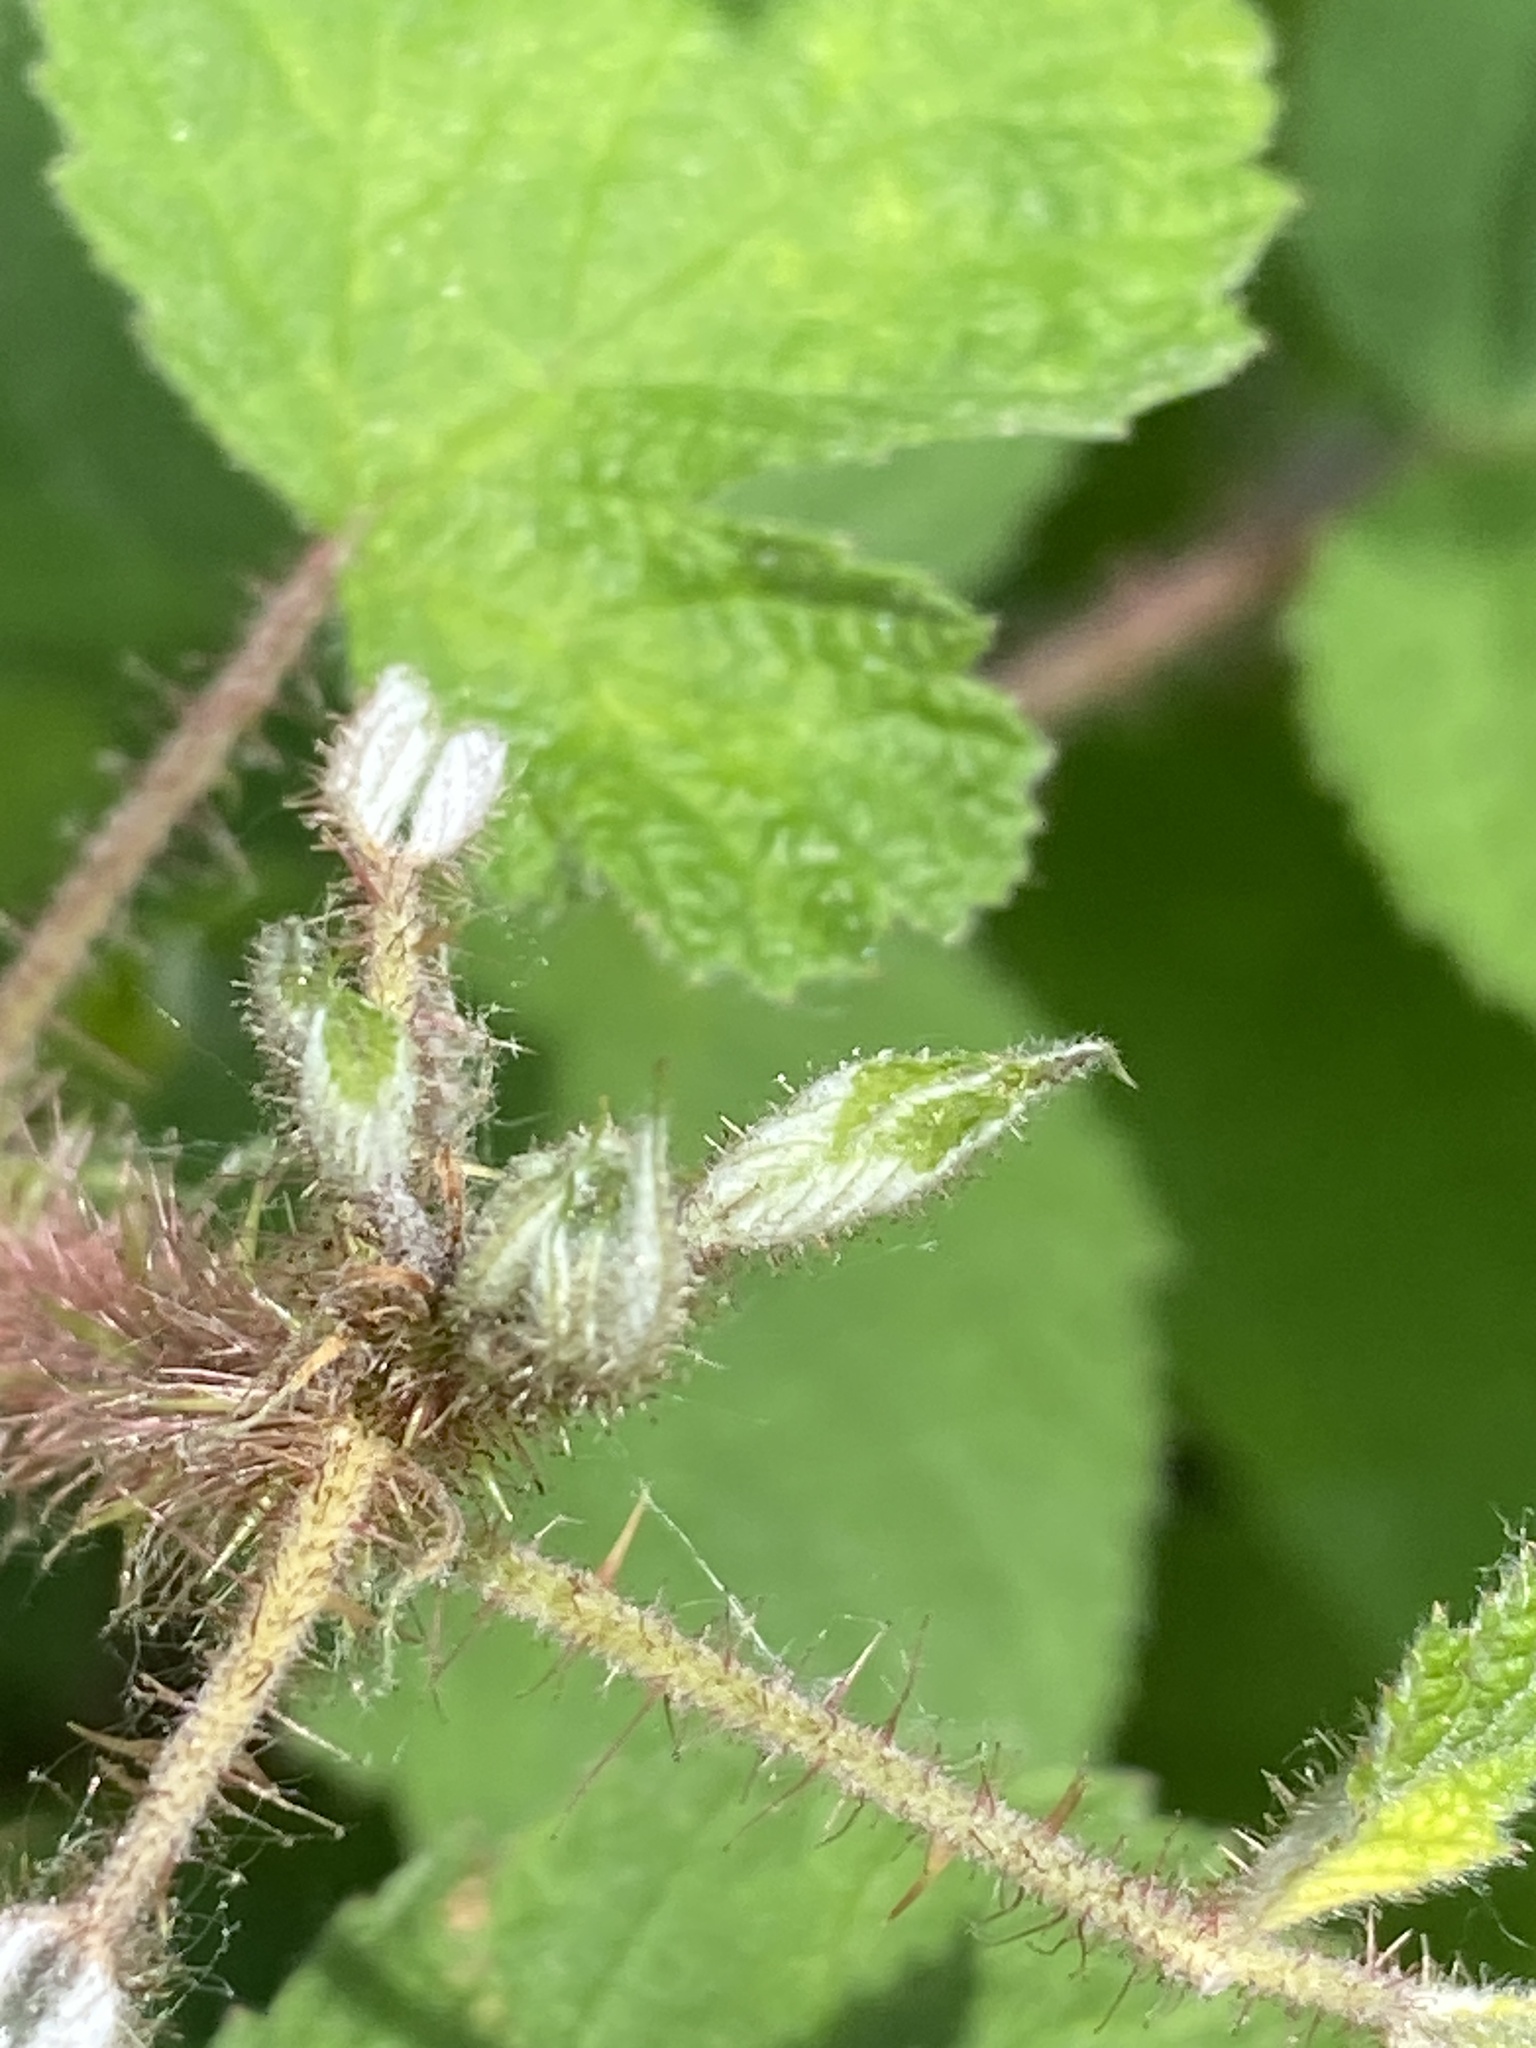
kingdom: Plantae
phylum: Tracheophyta
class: Magnoliopsida
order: Rosales
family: Rosaceae
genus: Rubus
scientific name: Rubus phoenicolasius
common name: Japanese wineberry
